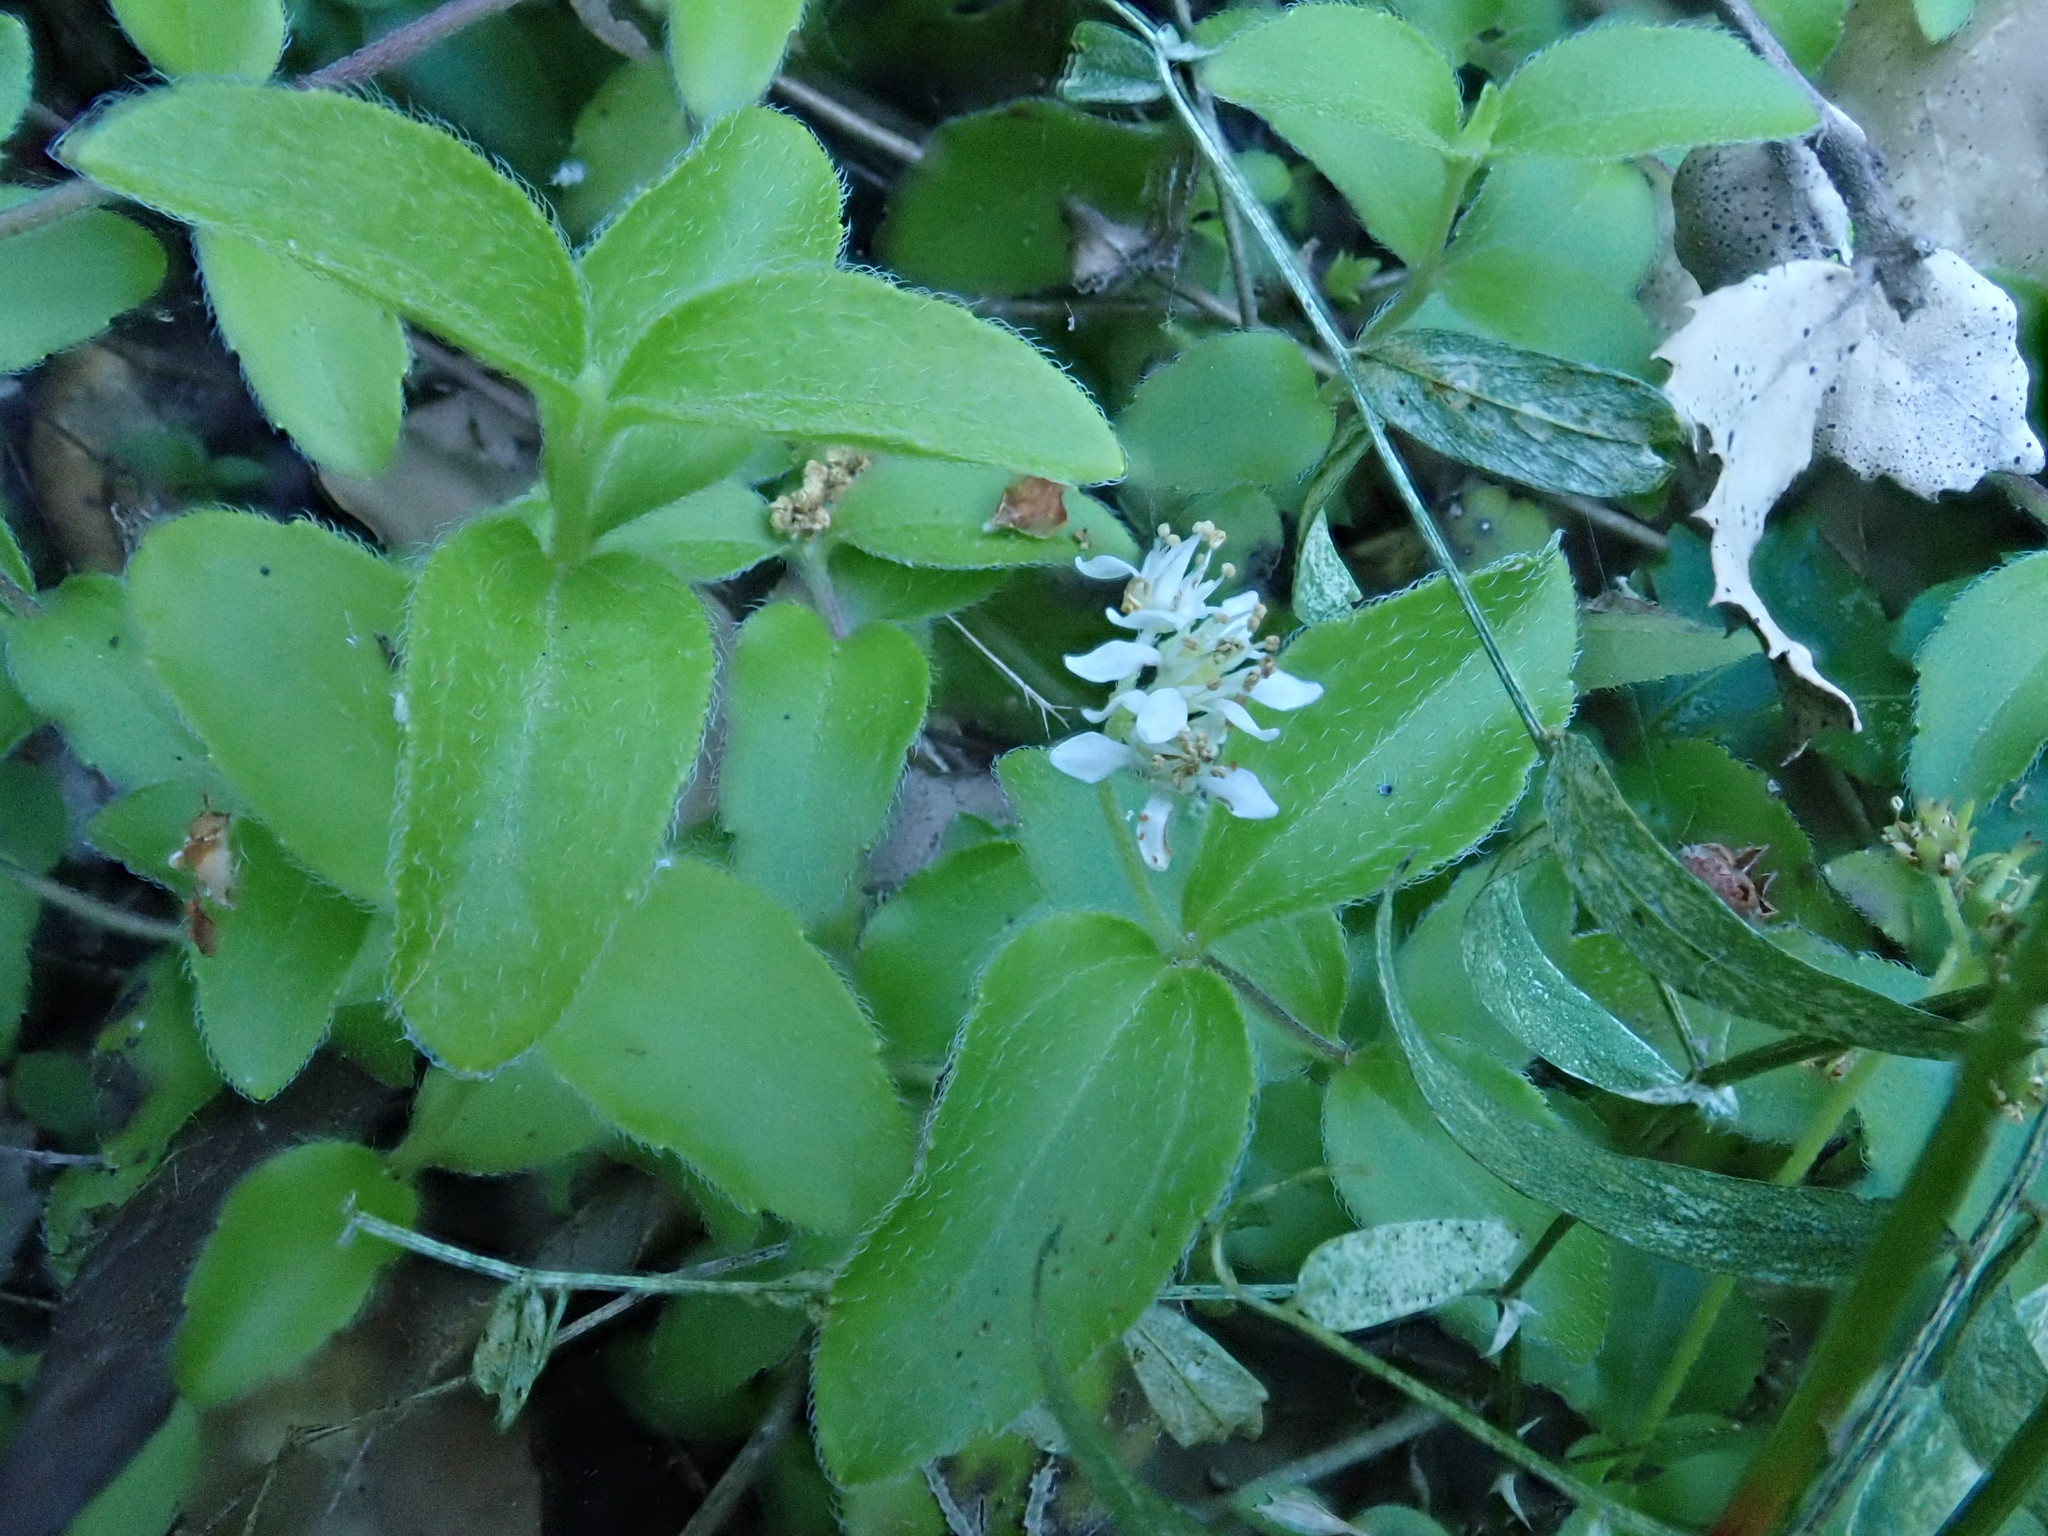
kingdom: Plantae
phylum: Tracheophyta
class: Magnoliopsida
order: Cornales
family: Hydrangeaceae
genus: Whipplea
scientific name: Whipplea modesta
